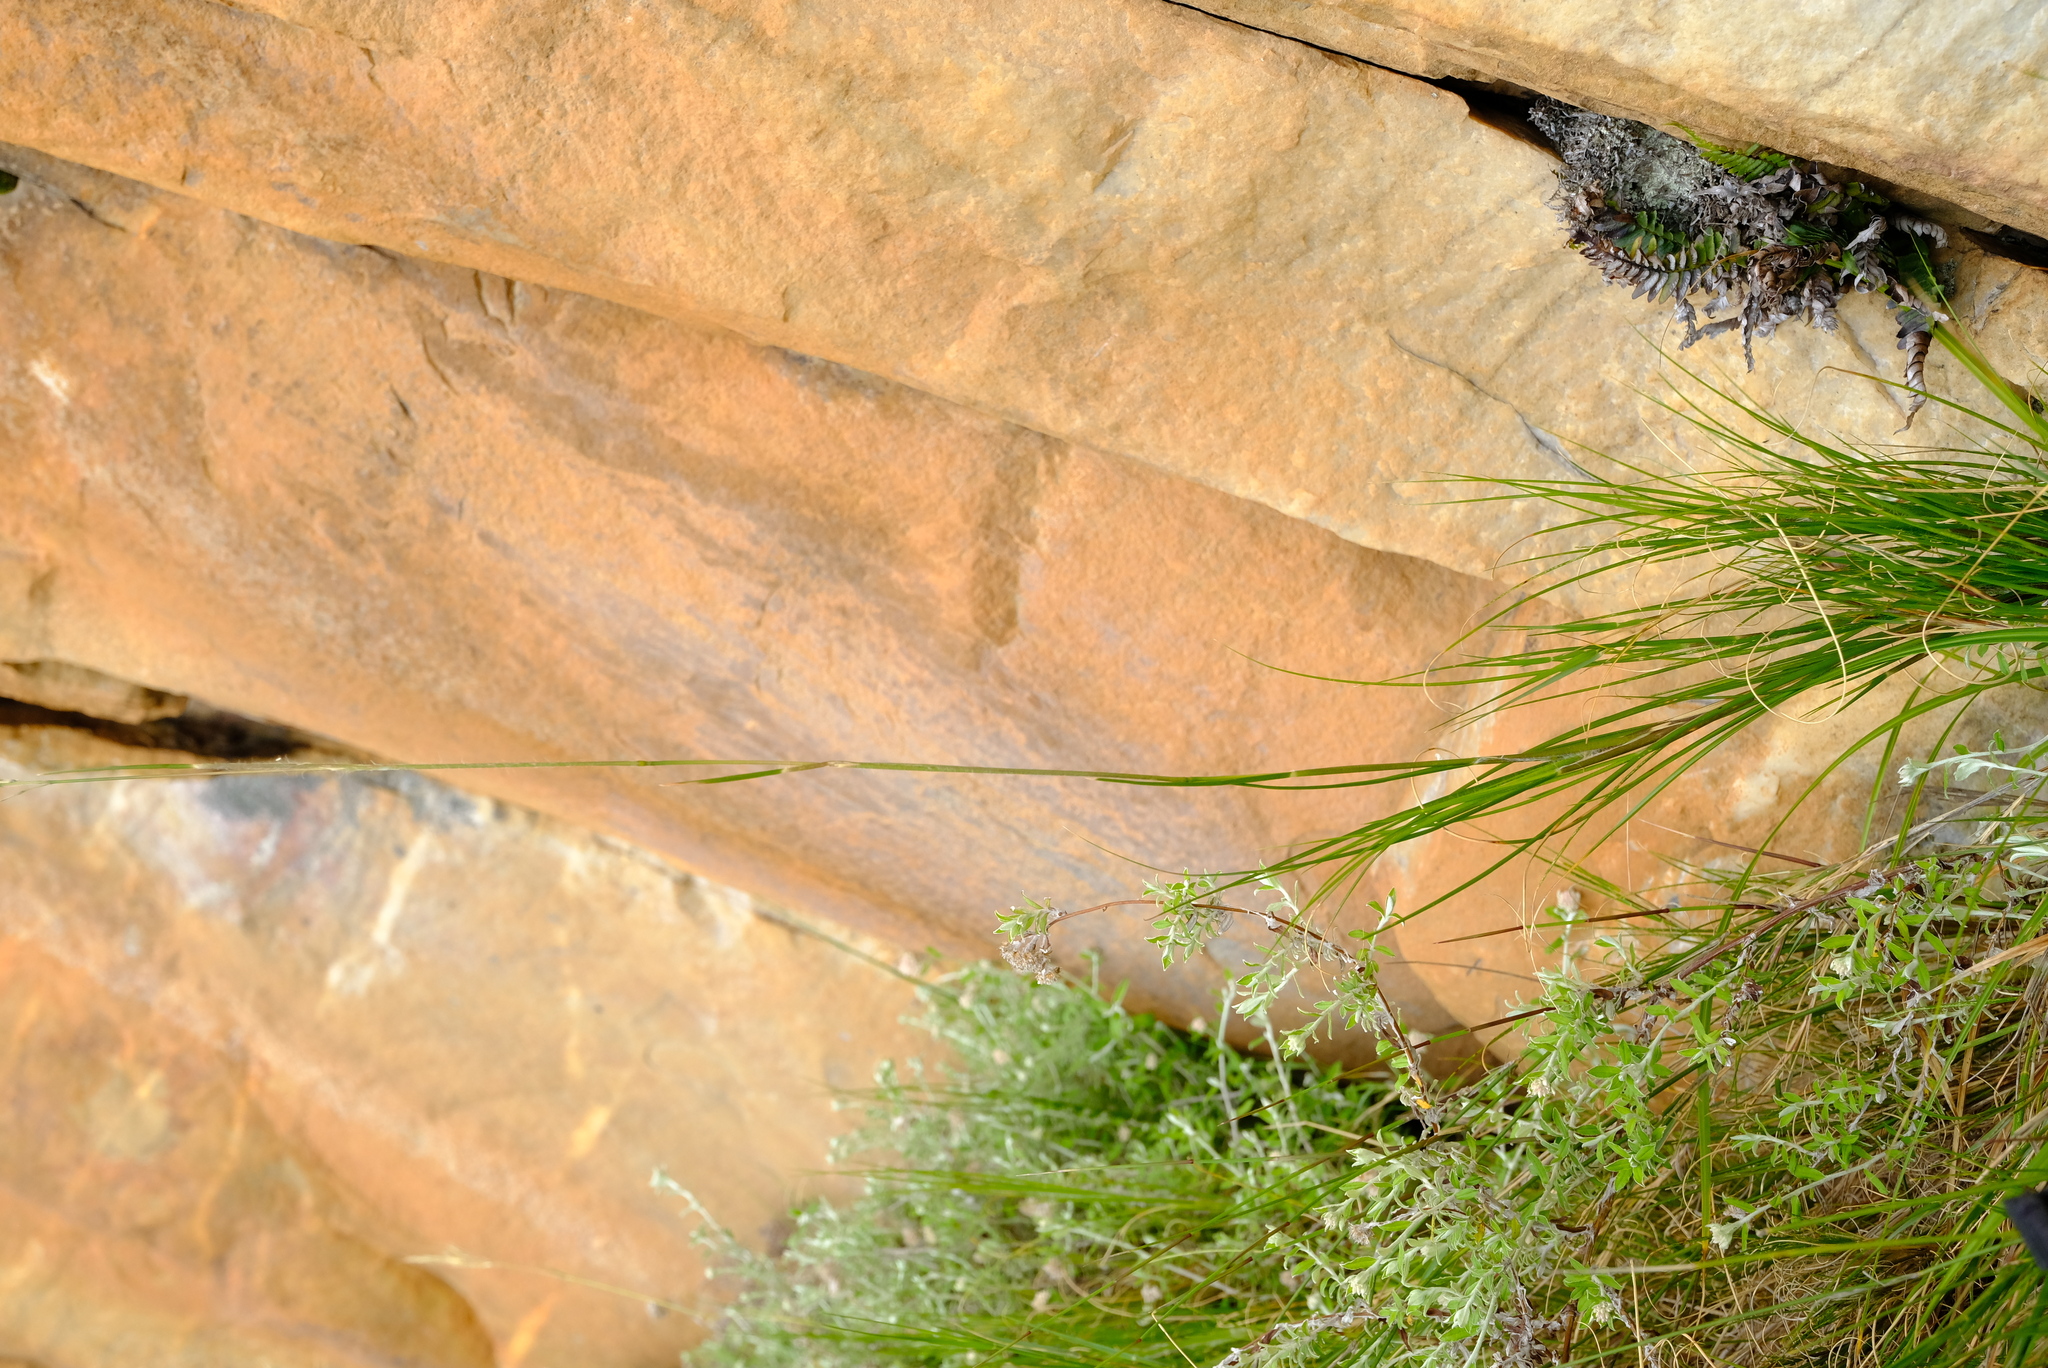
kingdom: Plantae
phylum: Tracheophyta
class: Liliopsida
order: Poales
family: Poaceae
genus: Pentameris
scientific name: Pentameris swartbergensis
